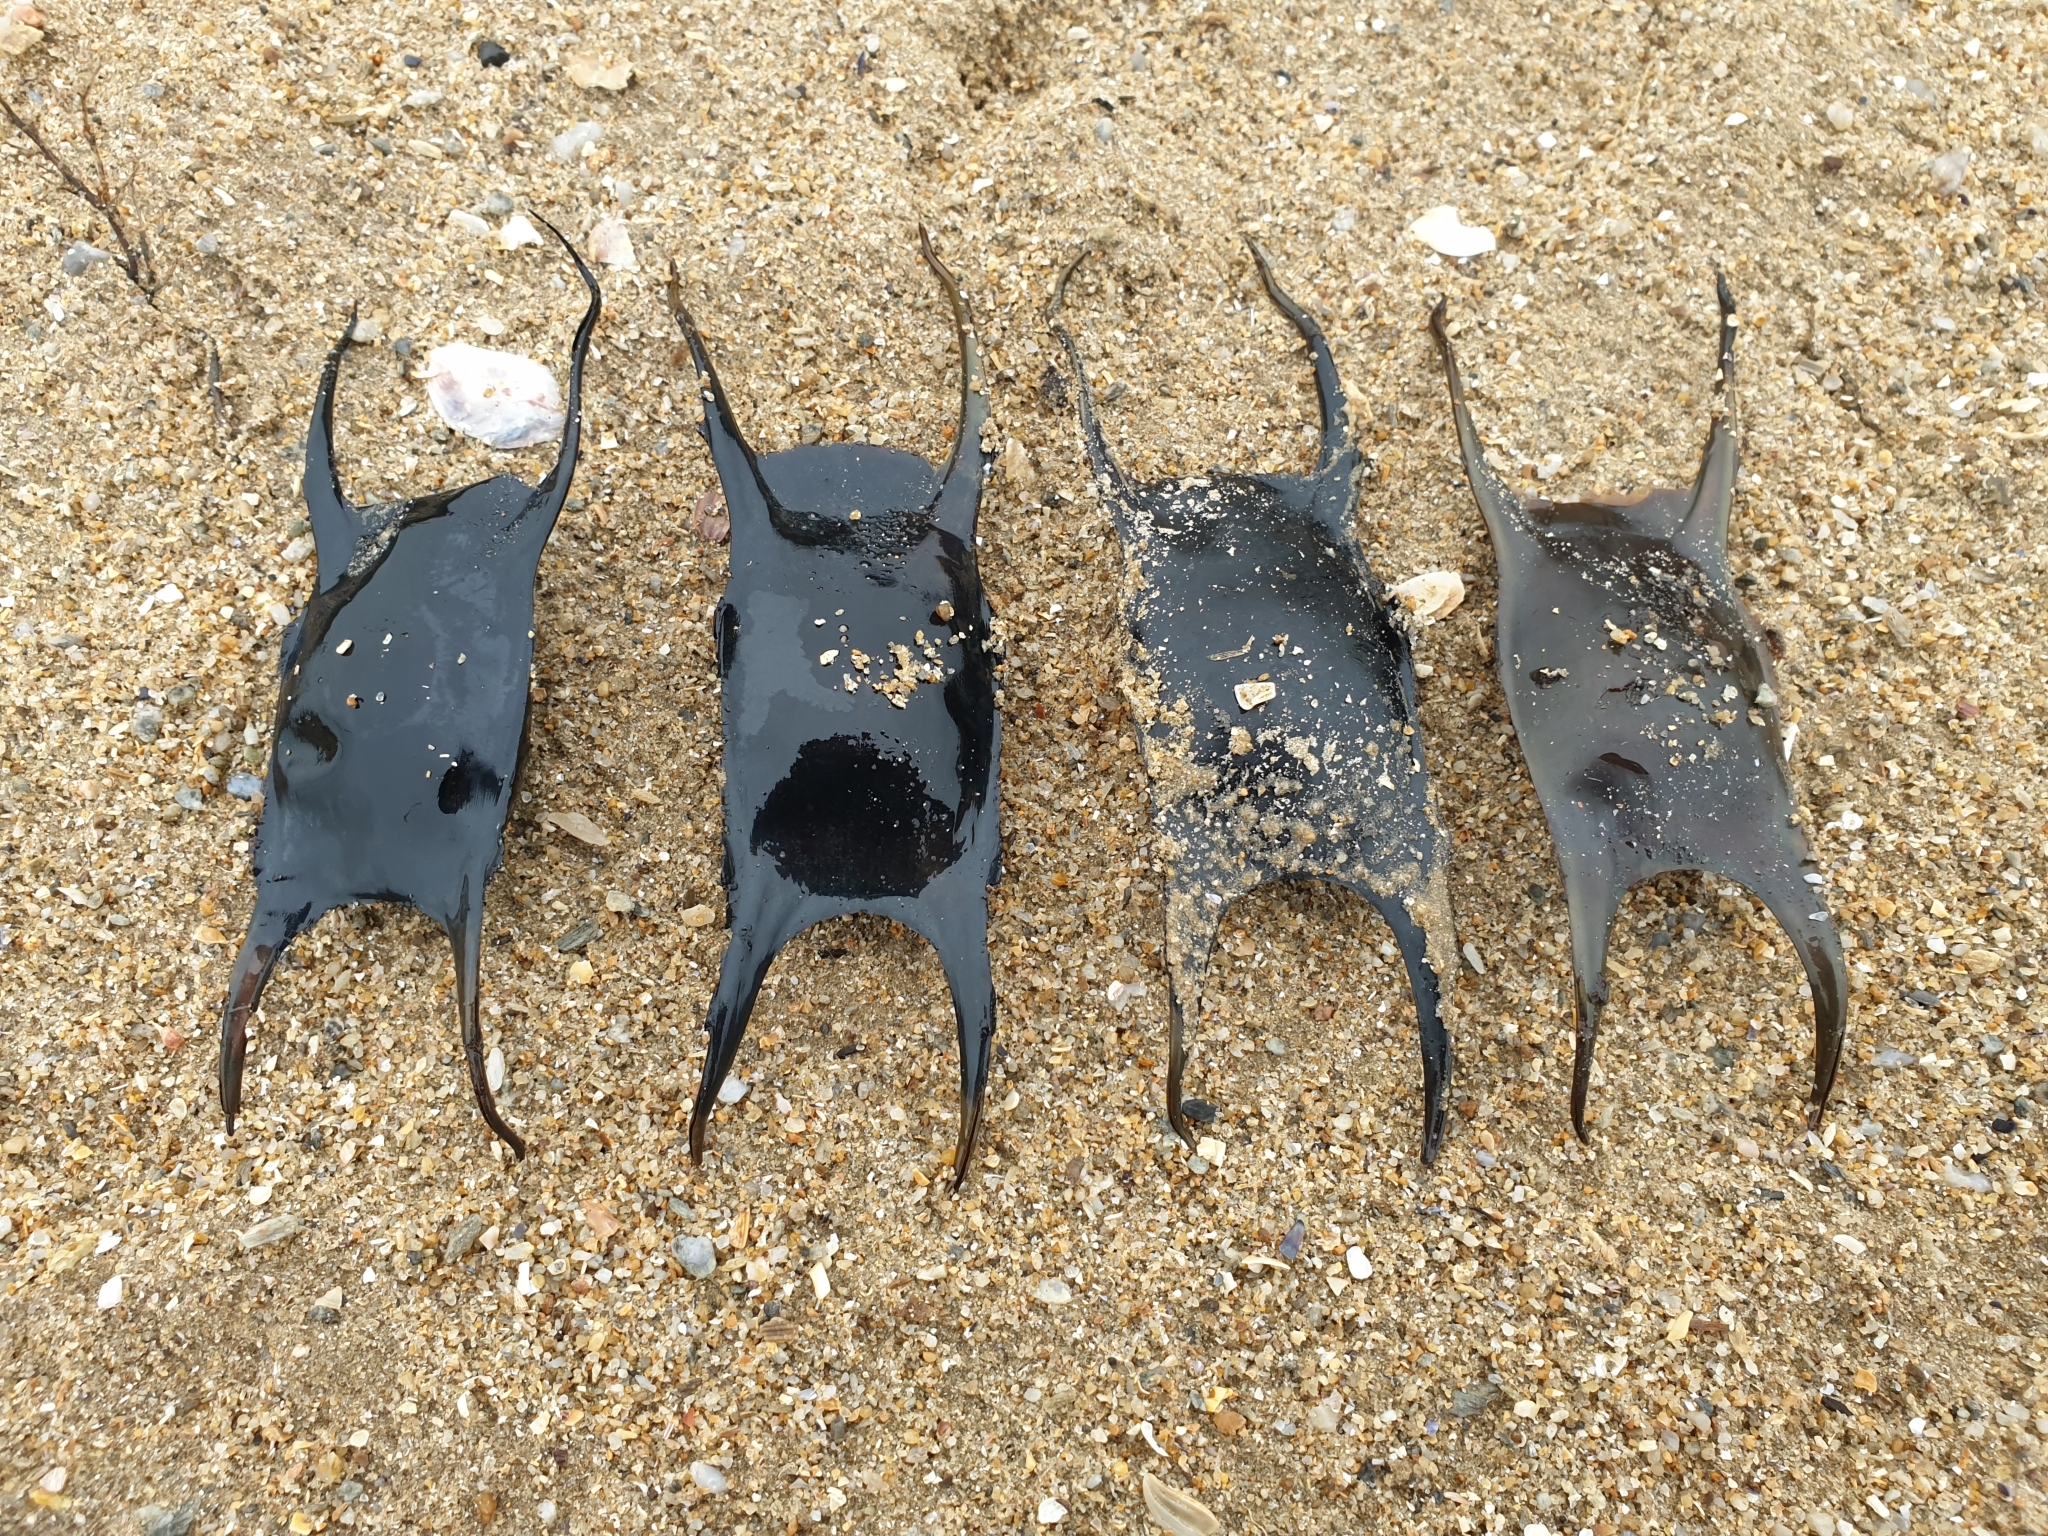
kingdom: Animalia
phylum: Chordata
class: Elasmobranchii
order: Rajiformes
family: Rajidae
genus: Raja
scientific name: Raja montagui
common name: Spotted ray
